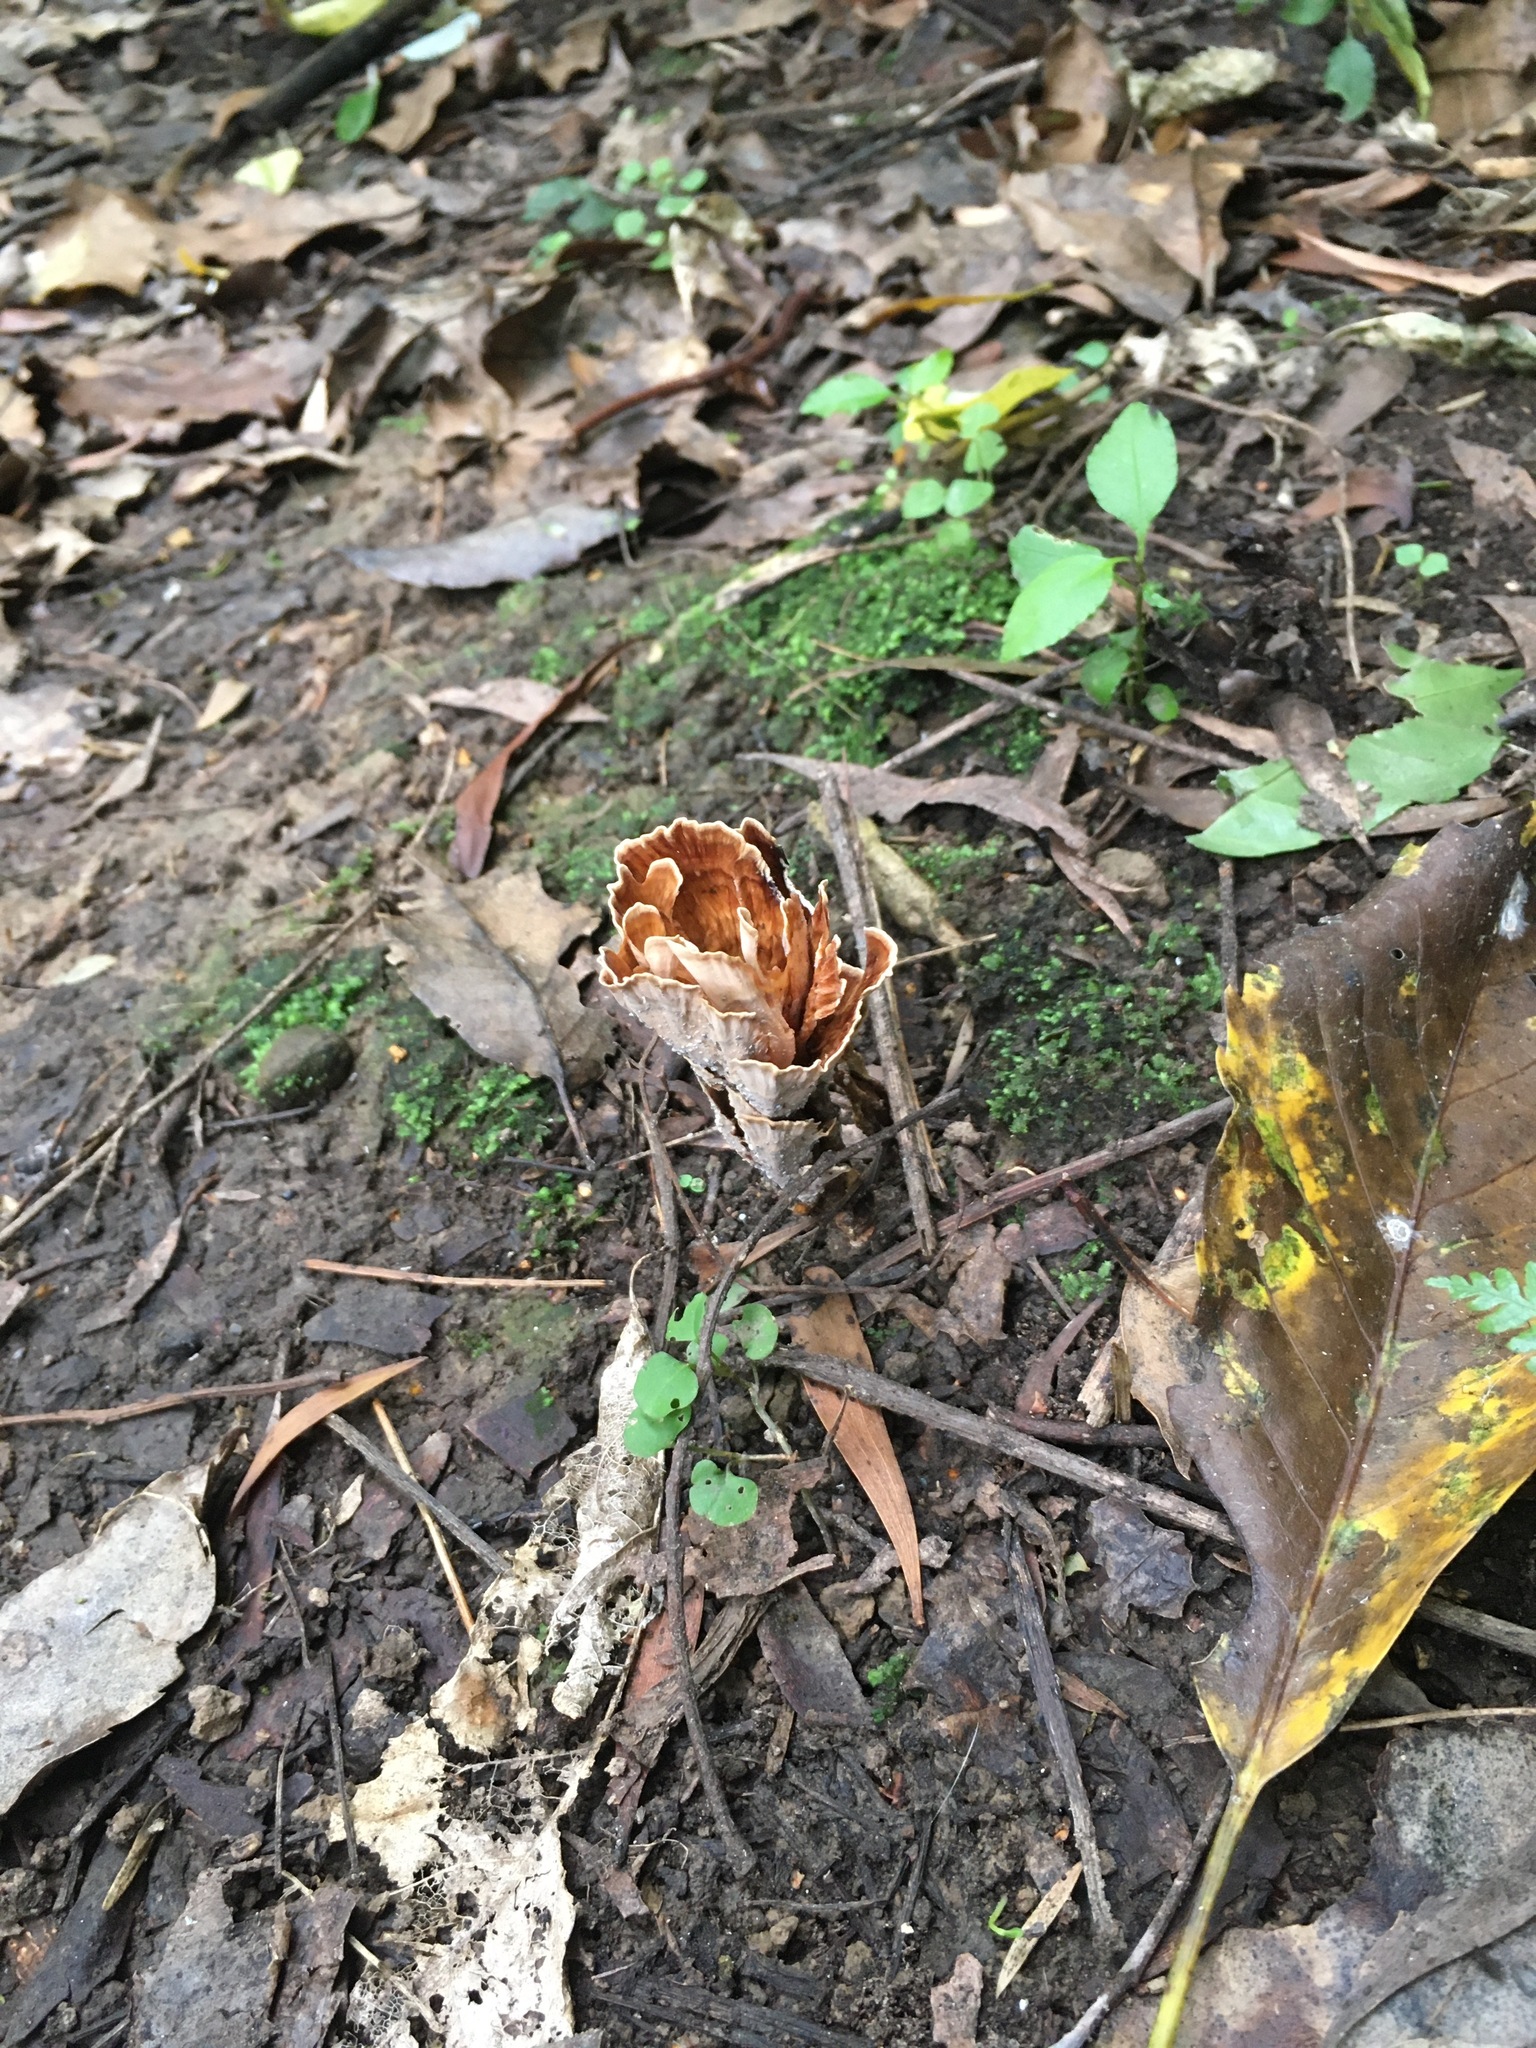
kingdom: Fungi
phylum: Basidiomycota
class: Agaricomycetes
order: Polyporales
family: Podoscyphaceae
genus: Podoscypha
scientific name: Podoscypha petalodes
